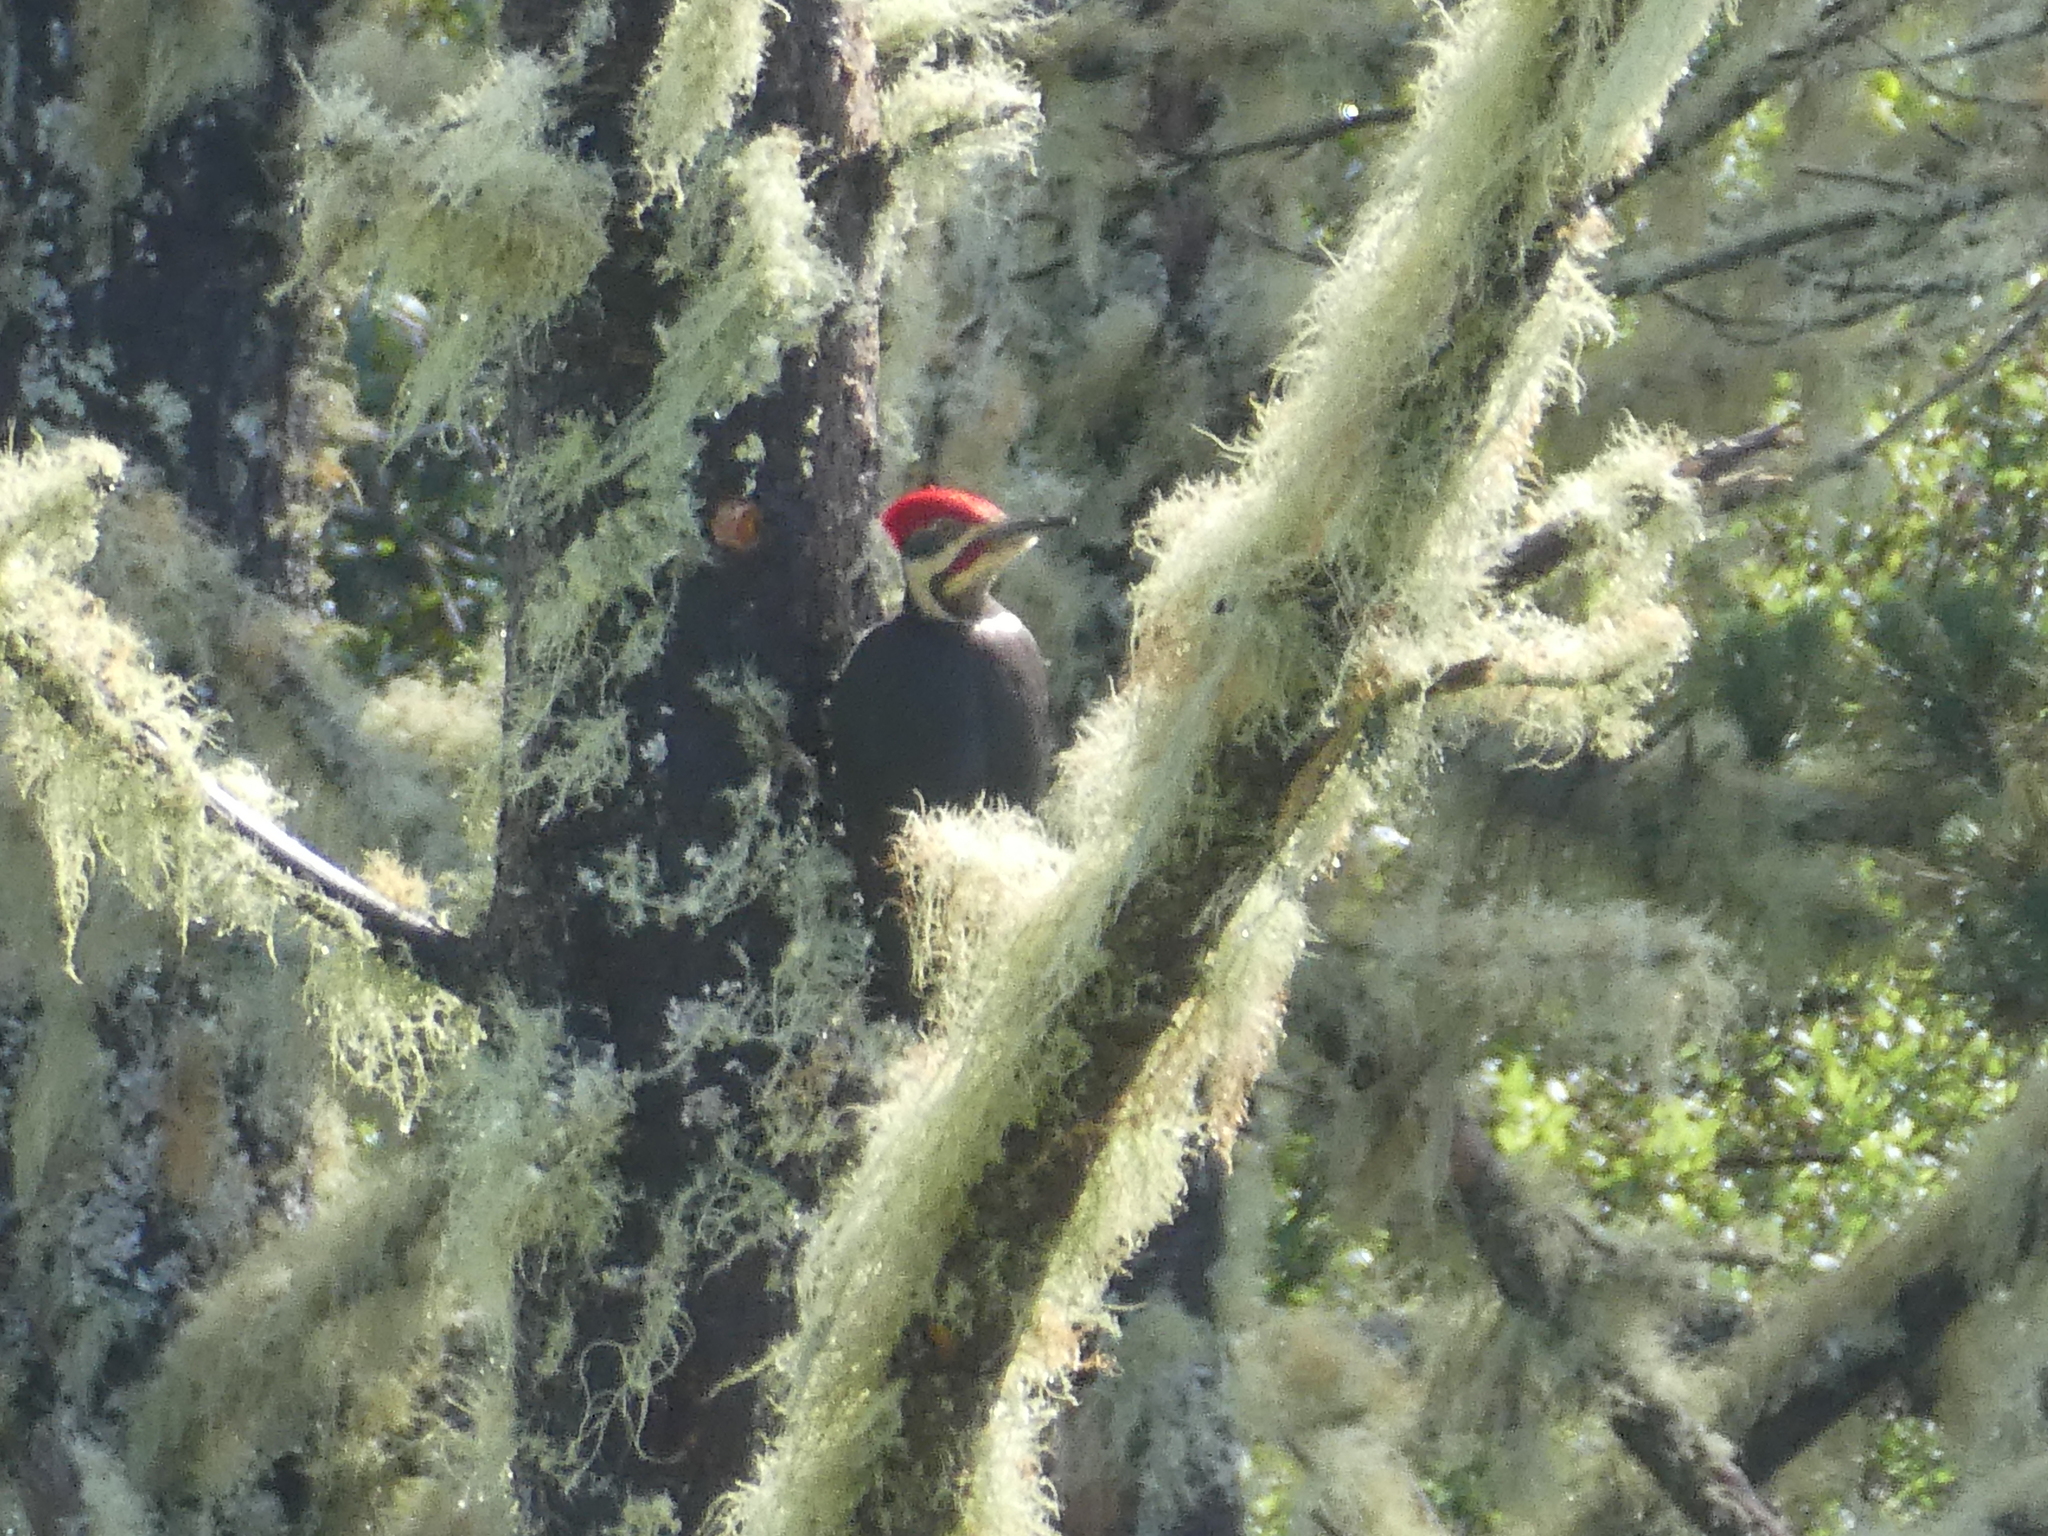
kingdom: Animalia
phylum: Chordata
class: Aves
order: Piciformes
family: Picidae
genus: Dryocopus
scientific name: Dryocopus pileatus
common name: Pileated woodpecker
